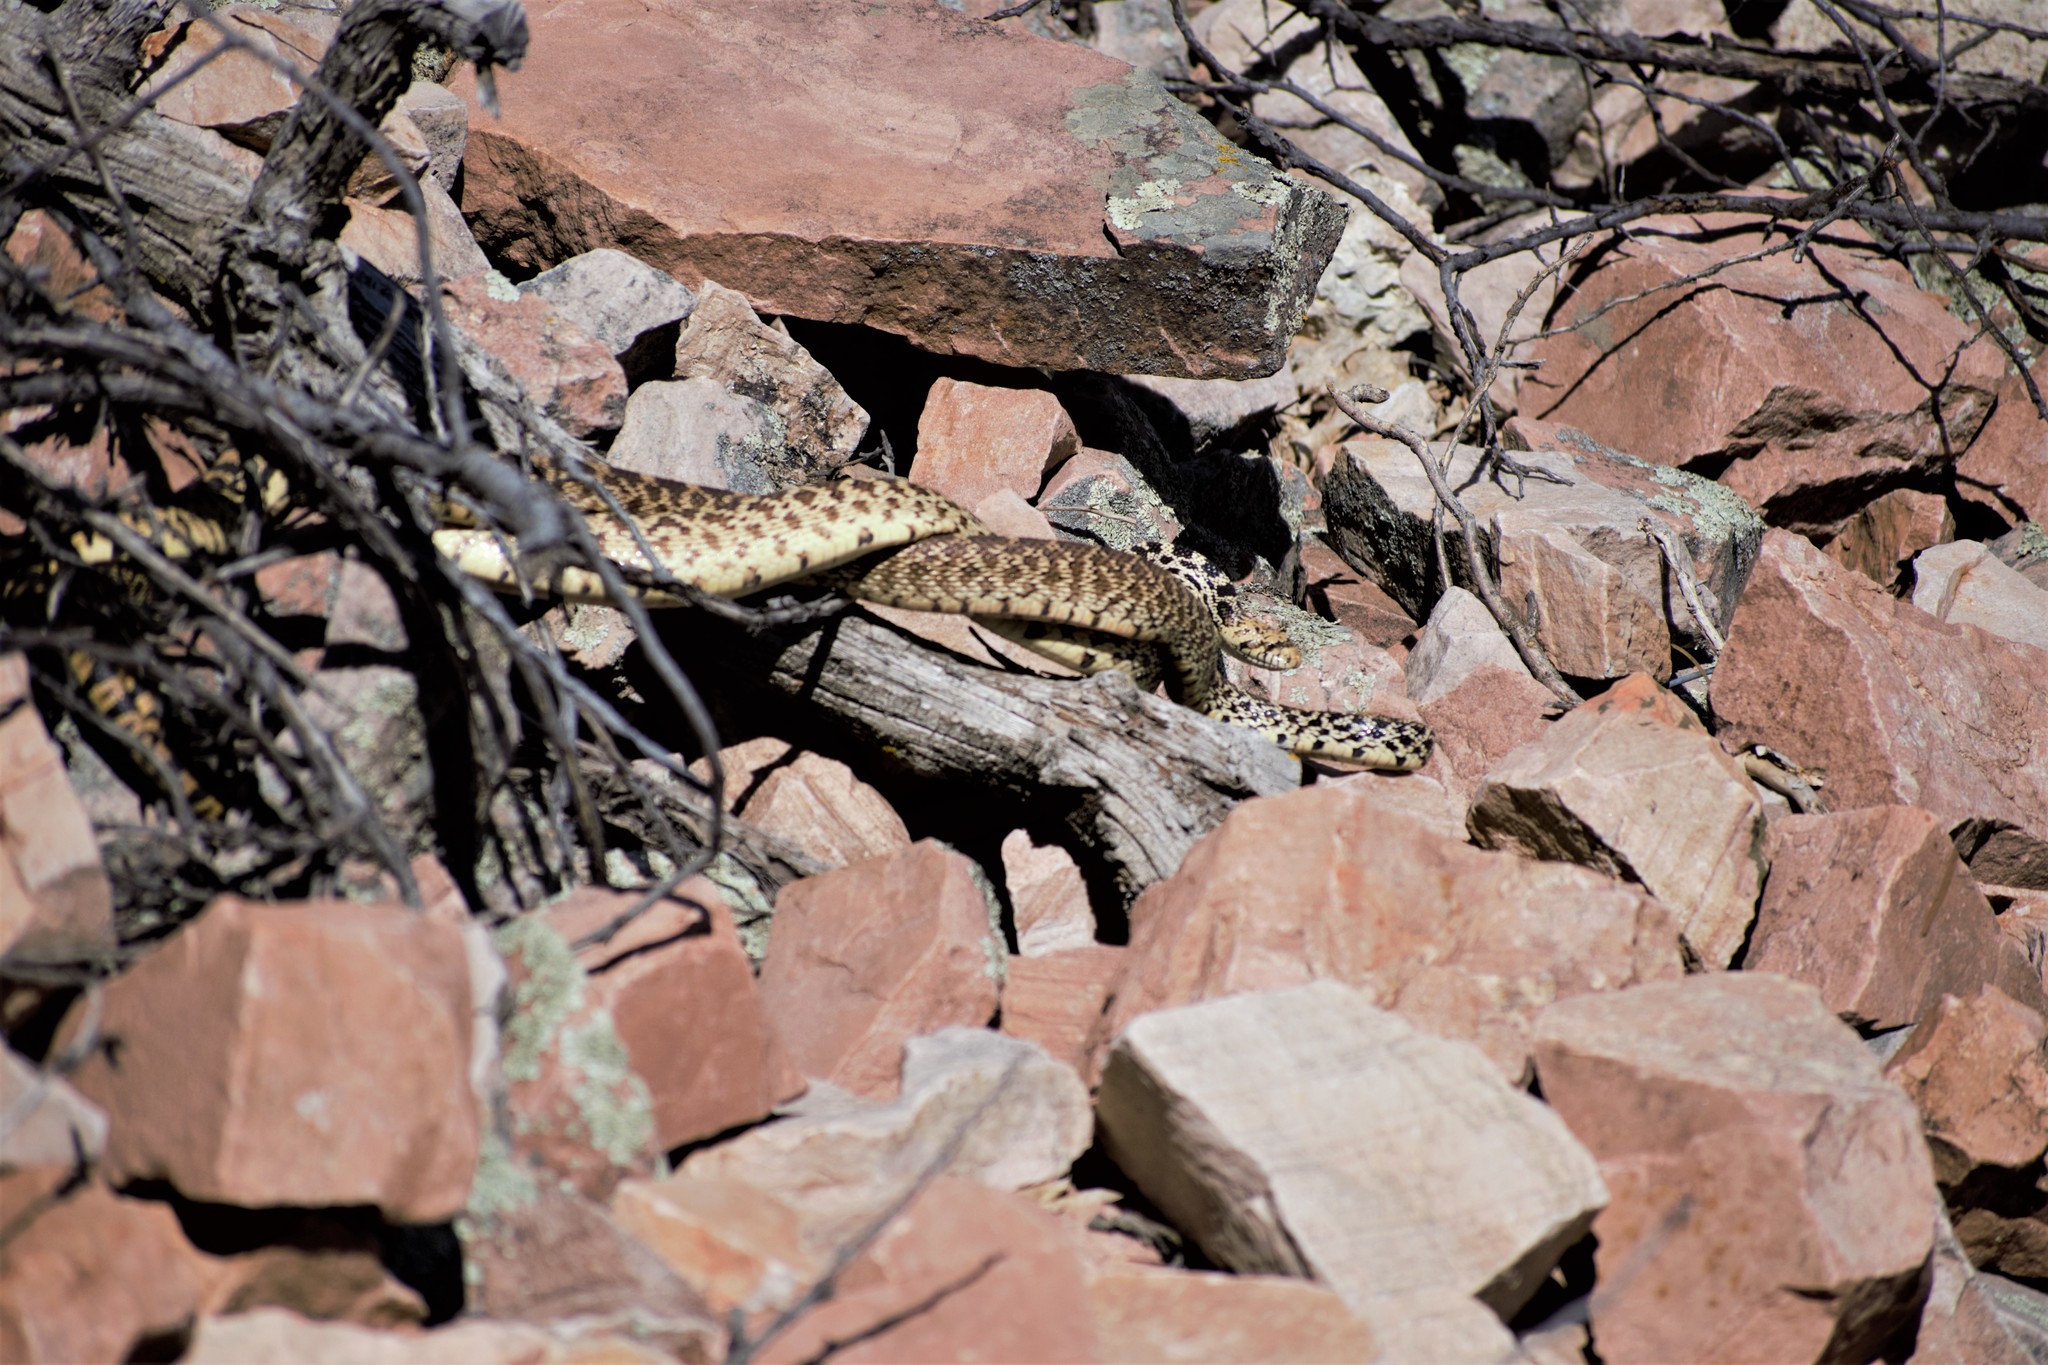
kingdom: Animalia
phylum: Chordata
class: Squamata
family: Colubridae
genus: Pituophis
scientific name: Pituophis catenifer
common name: Gopher snake
